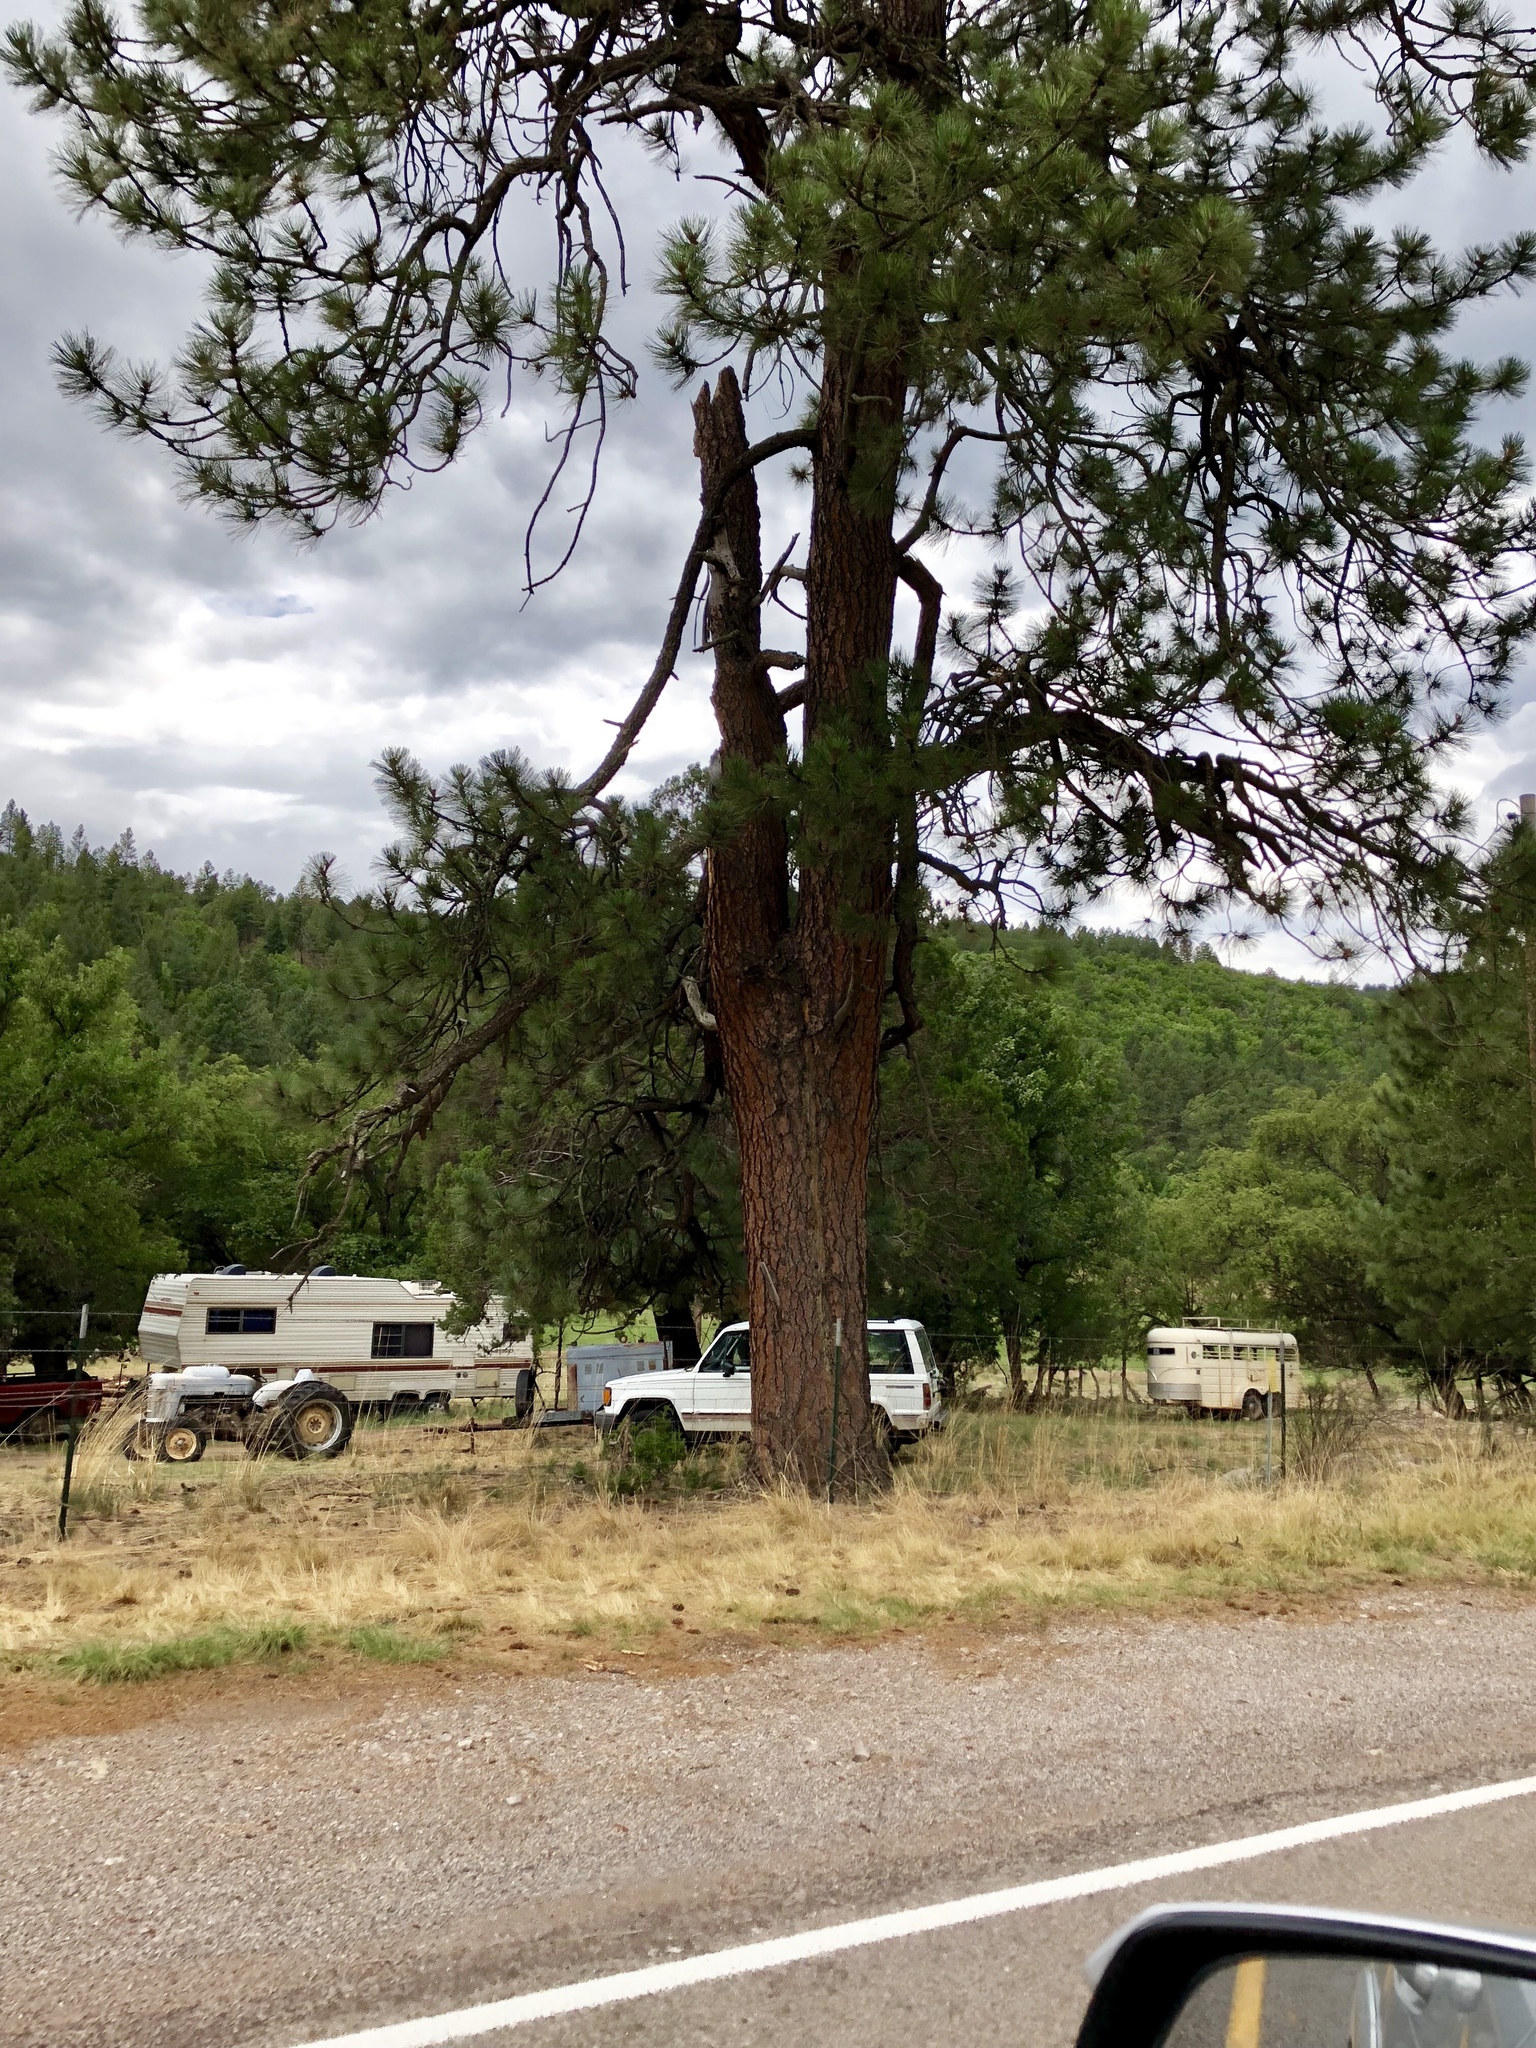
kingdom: Plantae
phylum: Tracheophyta
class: Pinopsida
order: Pinales
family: Pinaceae
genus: Pinus
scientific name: Pinus ponderosa
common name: Western yellow-pine
